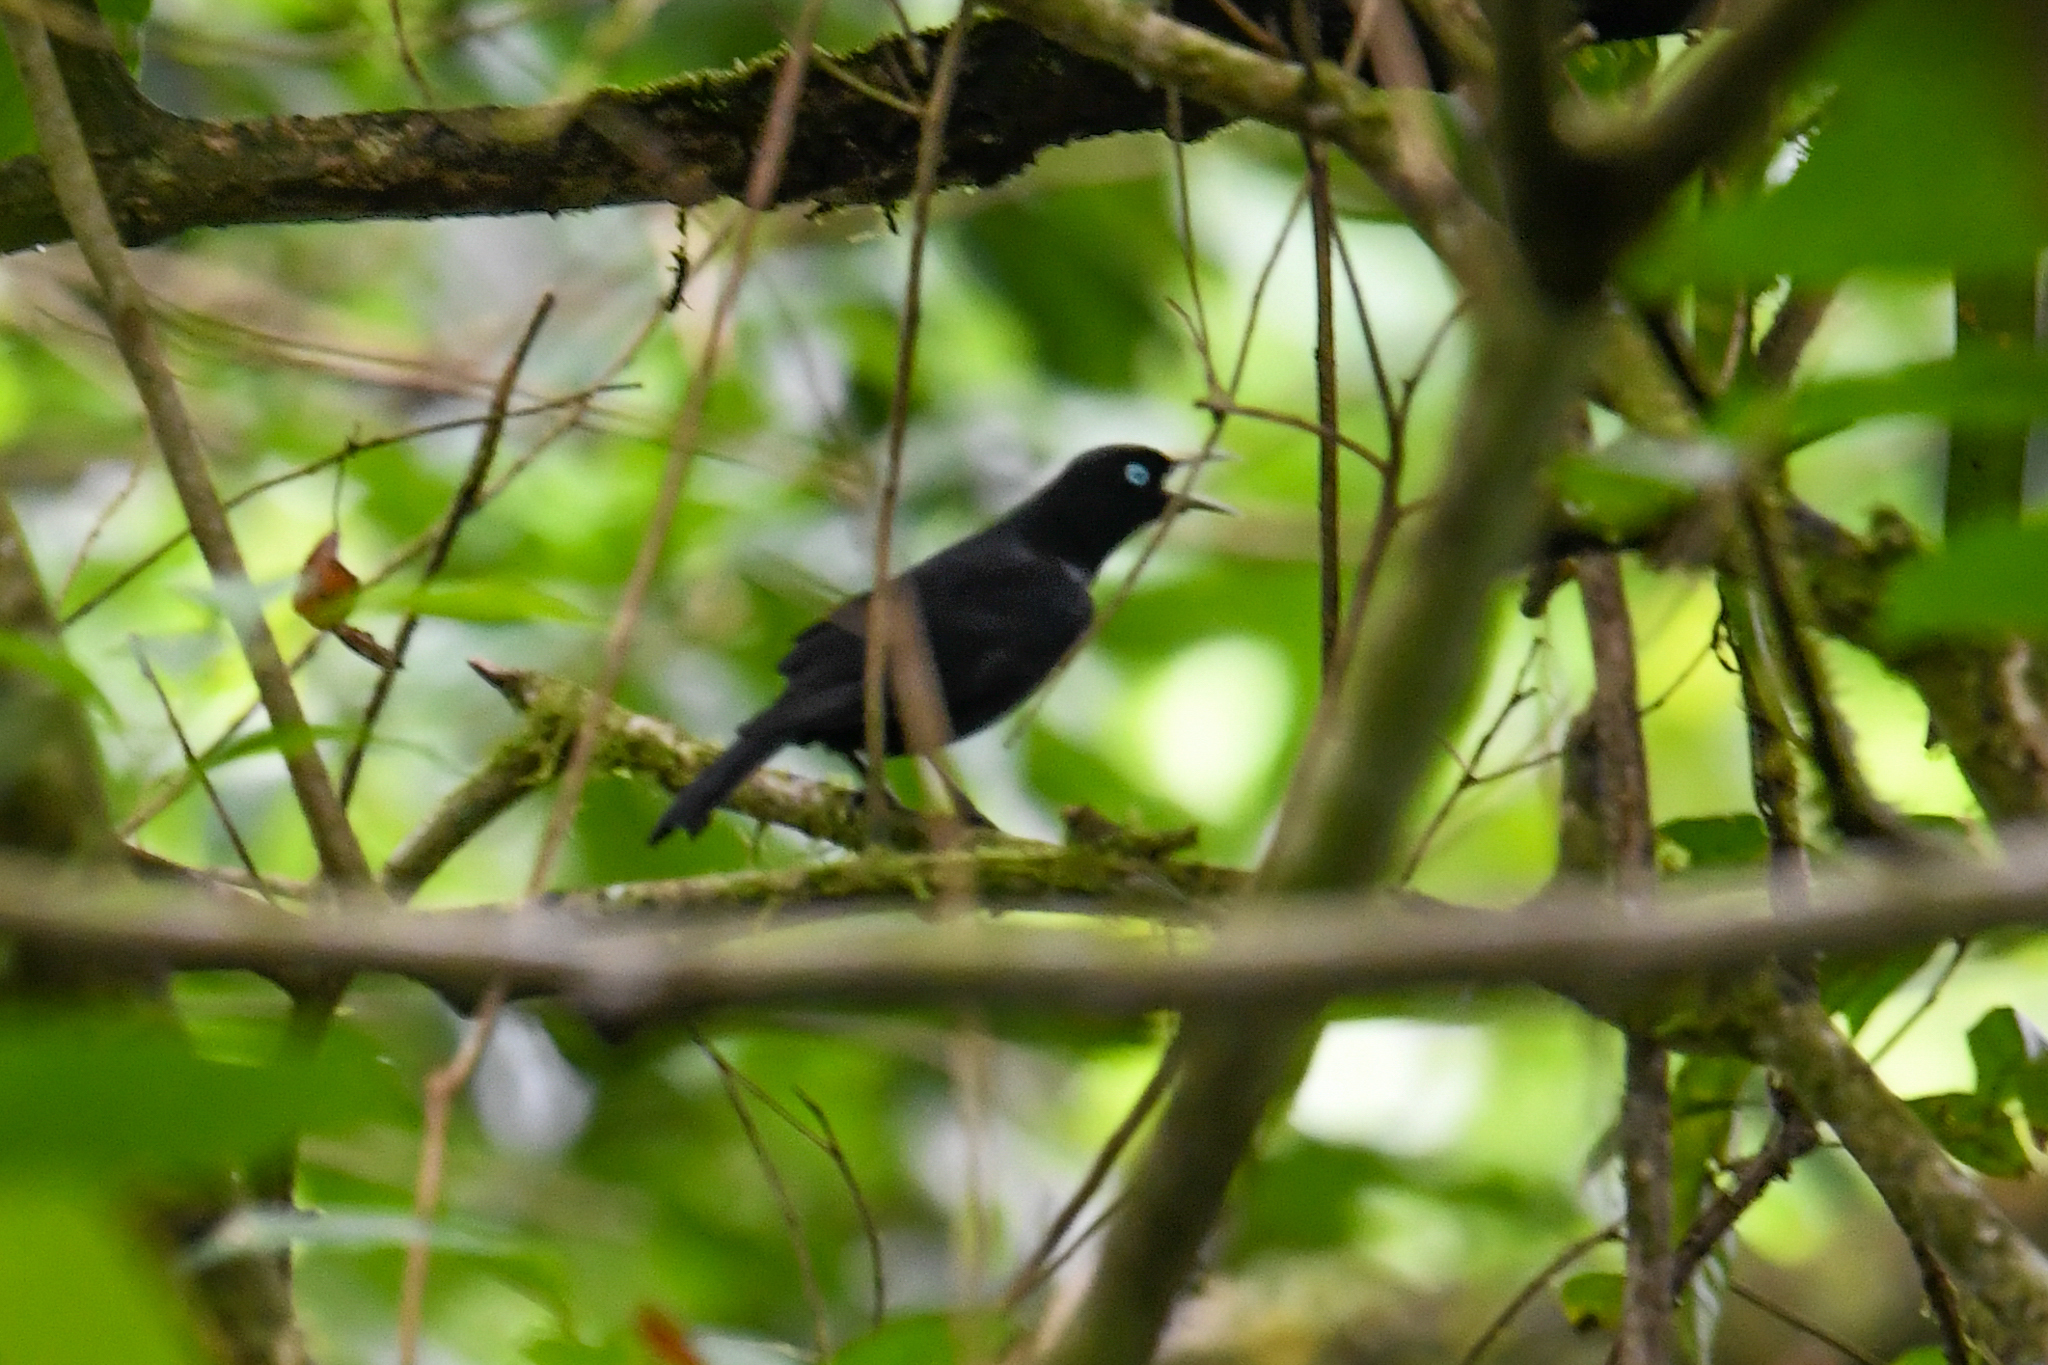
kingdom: Animalia
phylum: Chordata
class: Aves
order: Passeriformes
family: Icteridae
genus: Cacicus
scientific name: Cacicus uropygialis
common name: Scarlet-rumped cacique
